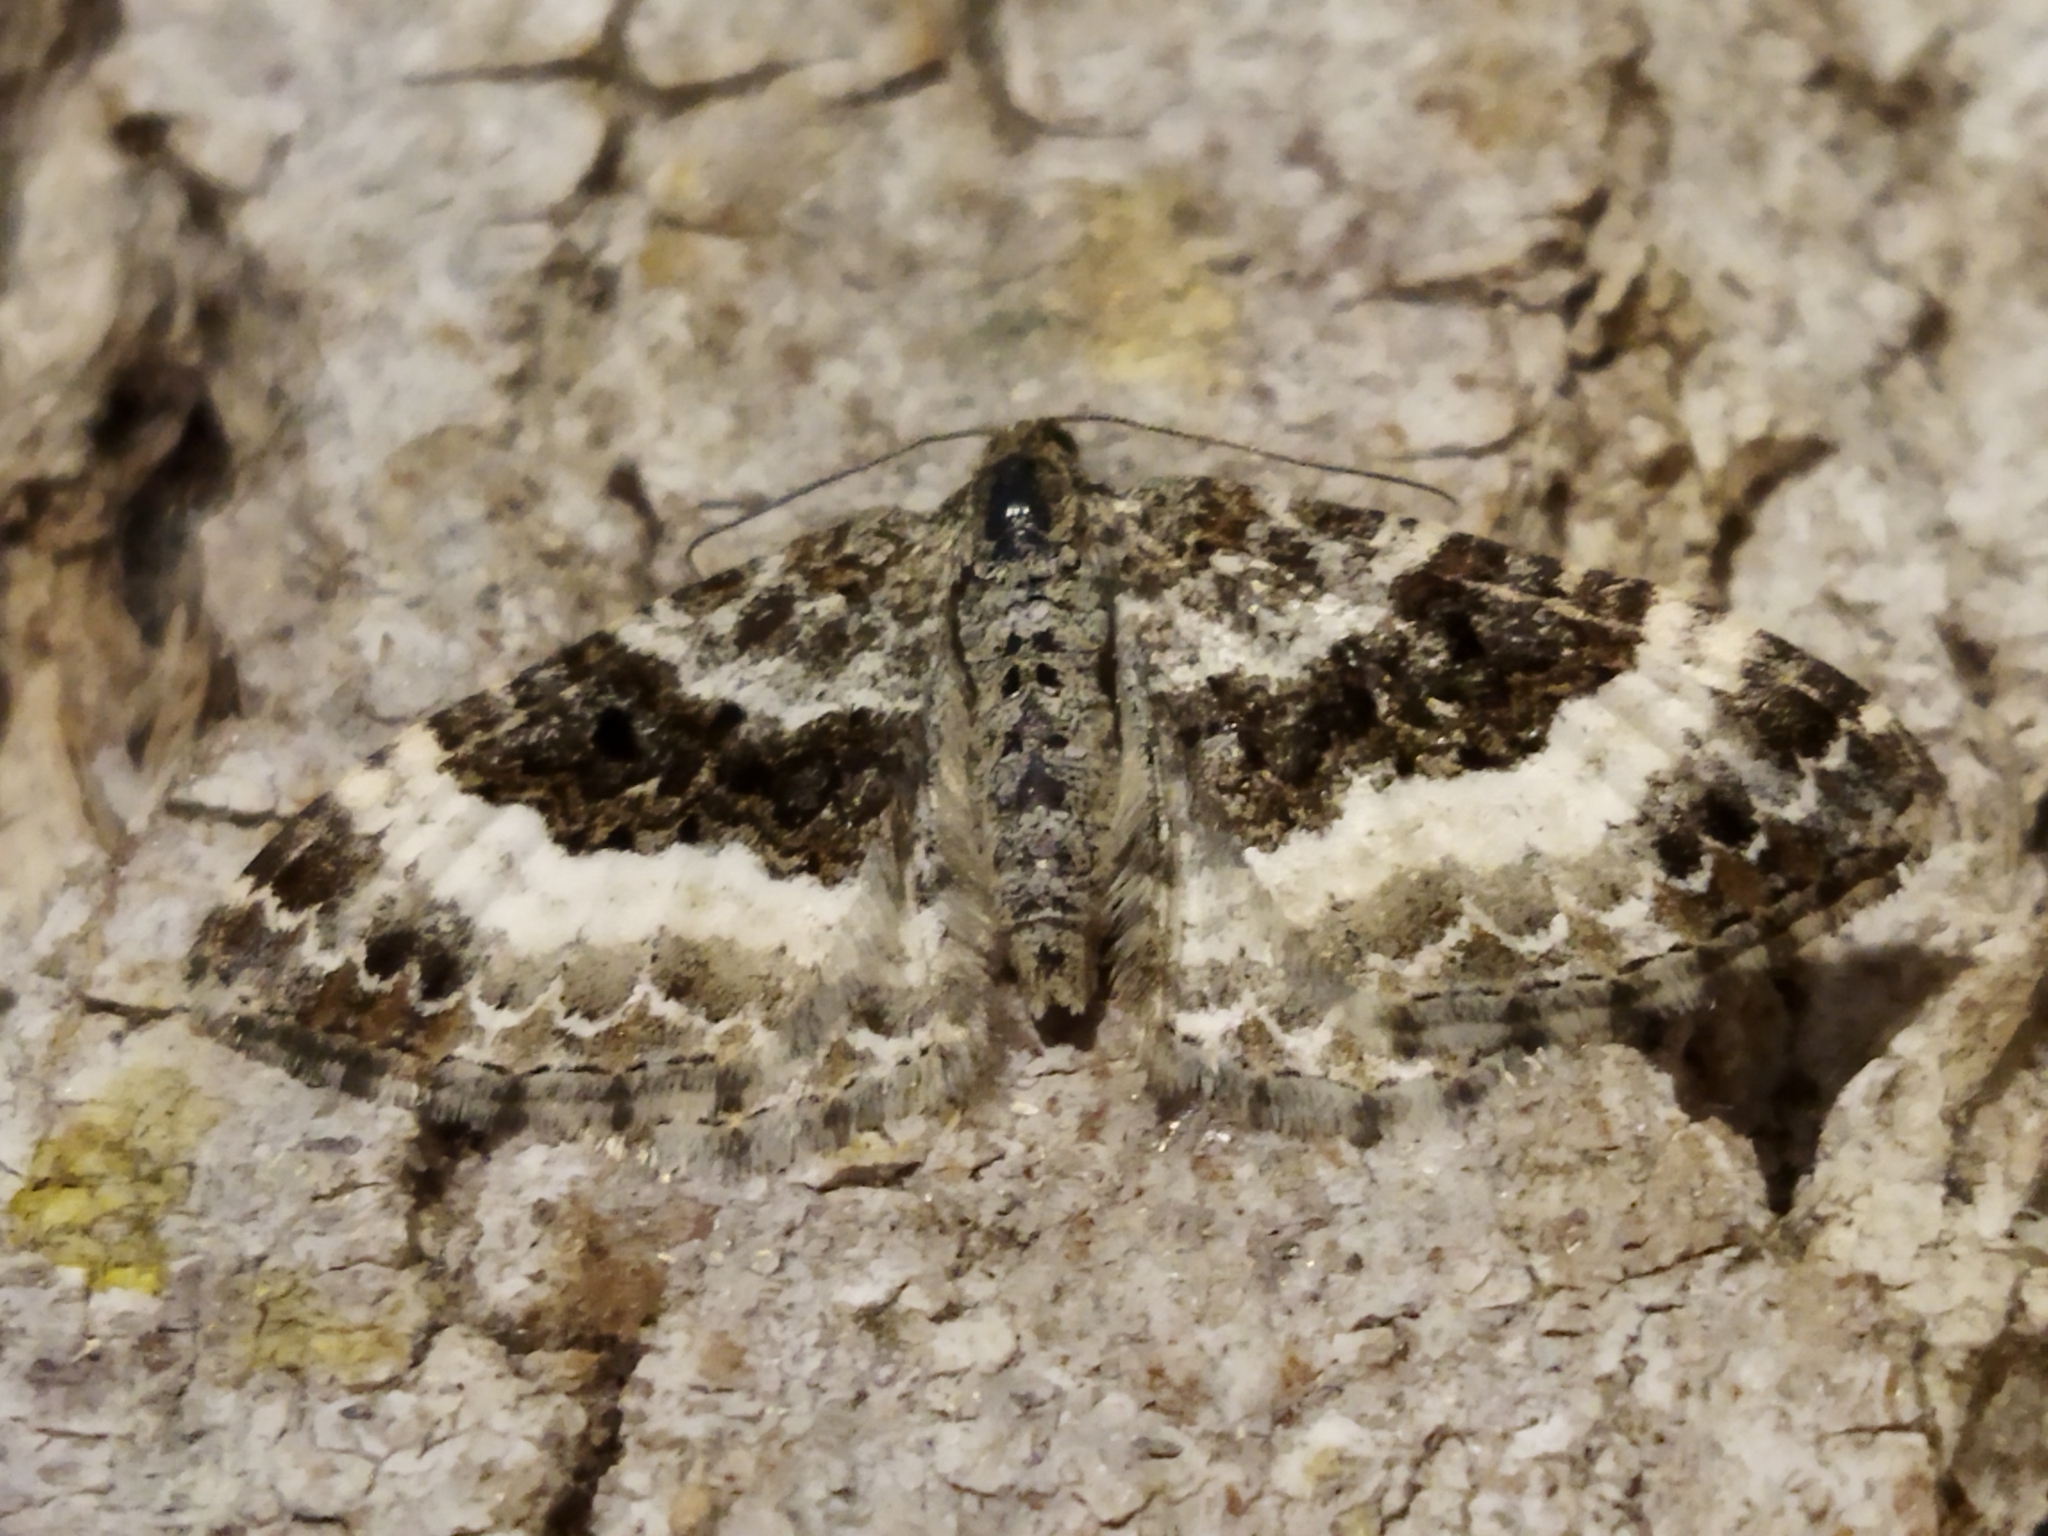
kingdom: Animalia
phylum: Arthropoda
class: Insecta
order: Lepidoptera
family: Geometridae
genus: Epirrhoe
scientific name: Epirrhoe alternata
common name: Common carpet
